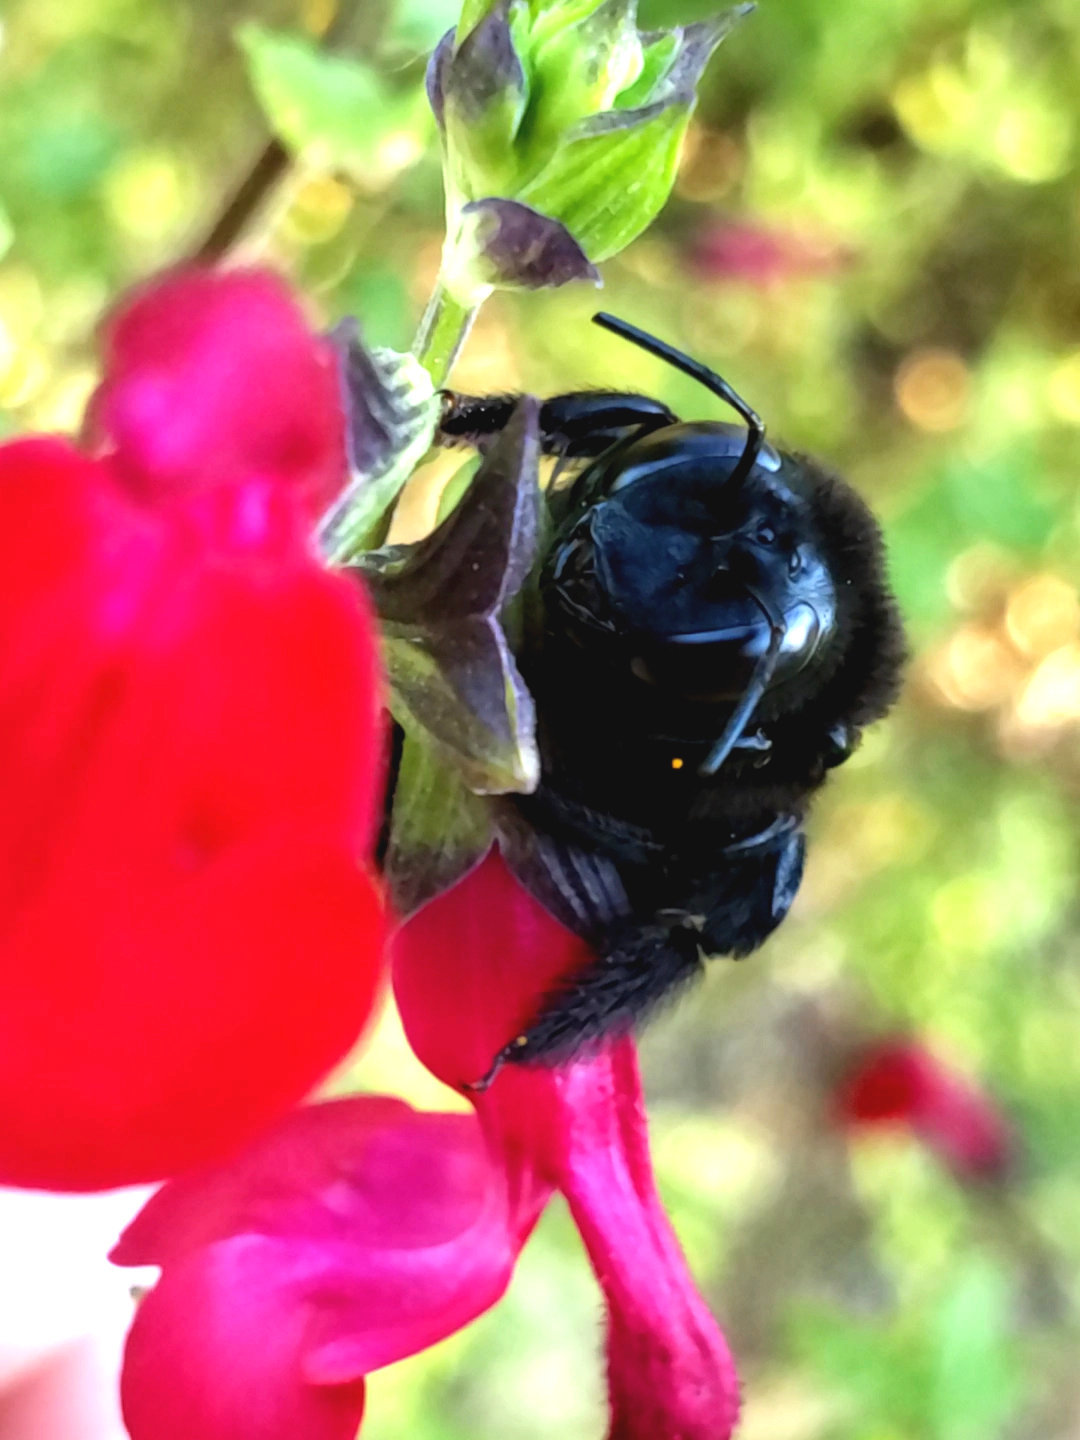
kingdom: Animalia
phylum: Arthropoda
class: Insecta
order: Hymenoptera
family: Apidae
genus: Xylocopa
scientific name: Xylocopa tabaniformis
